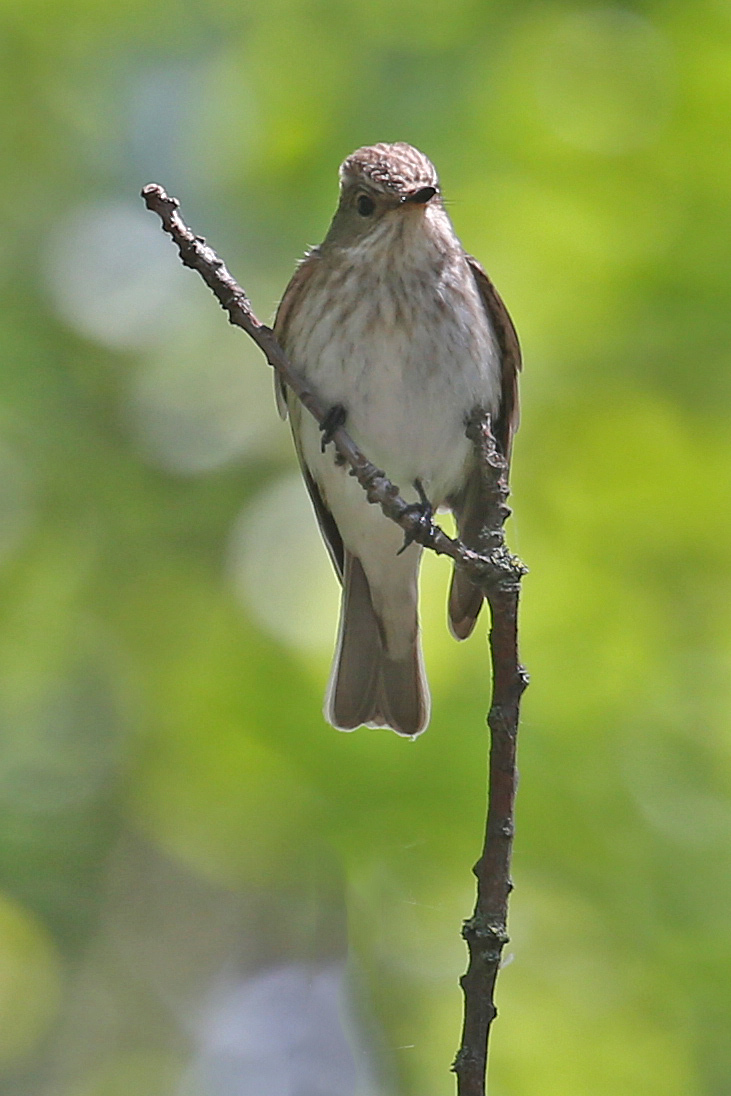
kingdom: Animalia
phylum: Chordata
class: Aves
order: Passeriformes
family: Muscicapidae
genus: Muscicapa
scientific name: Muscicapa striata
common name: Spotted flycatcher
